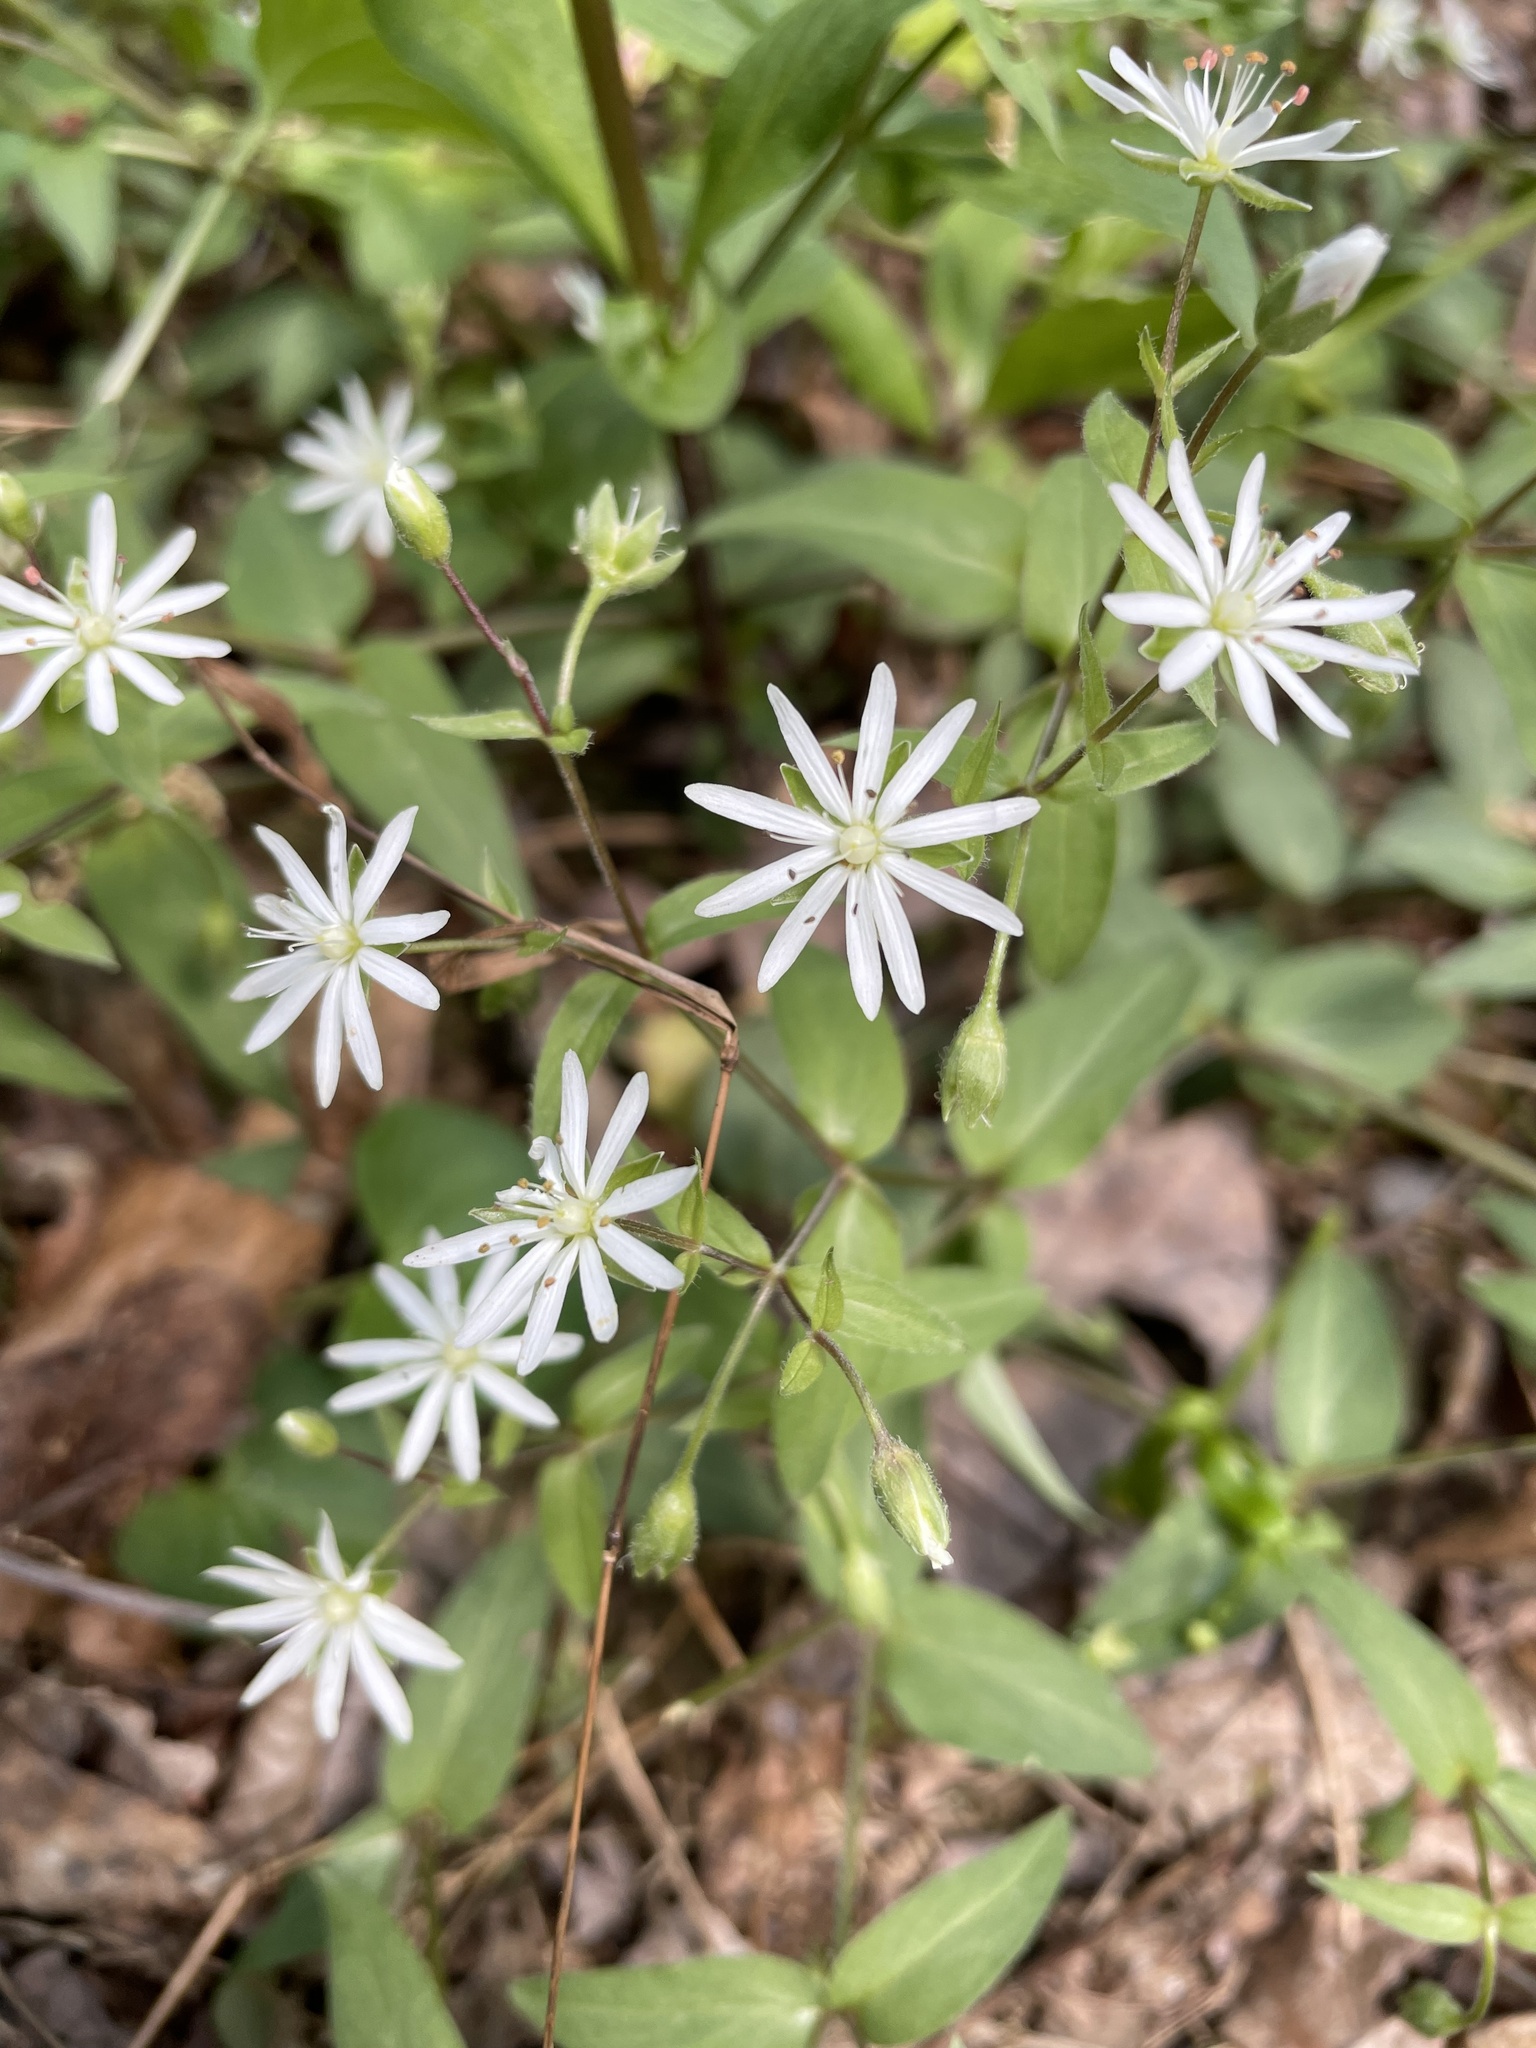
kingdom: Plantae
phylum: Tracheophyta
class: Magnoliopsida
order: Caryophyllales
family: Caryophyllaceae
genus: Stellaria
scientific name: Stellaria pubera
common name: Star chickweed
